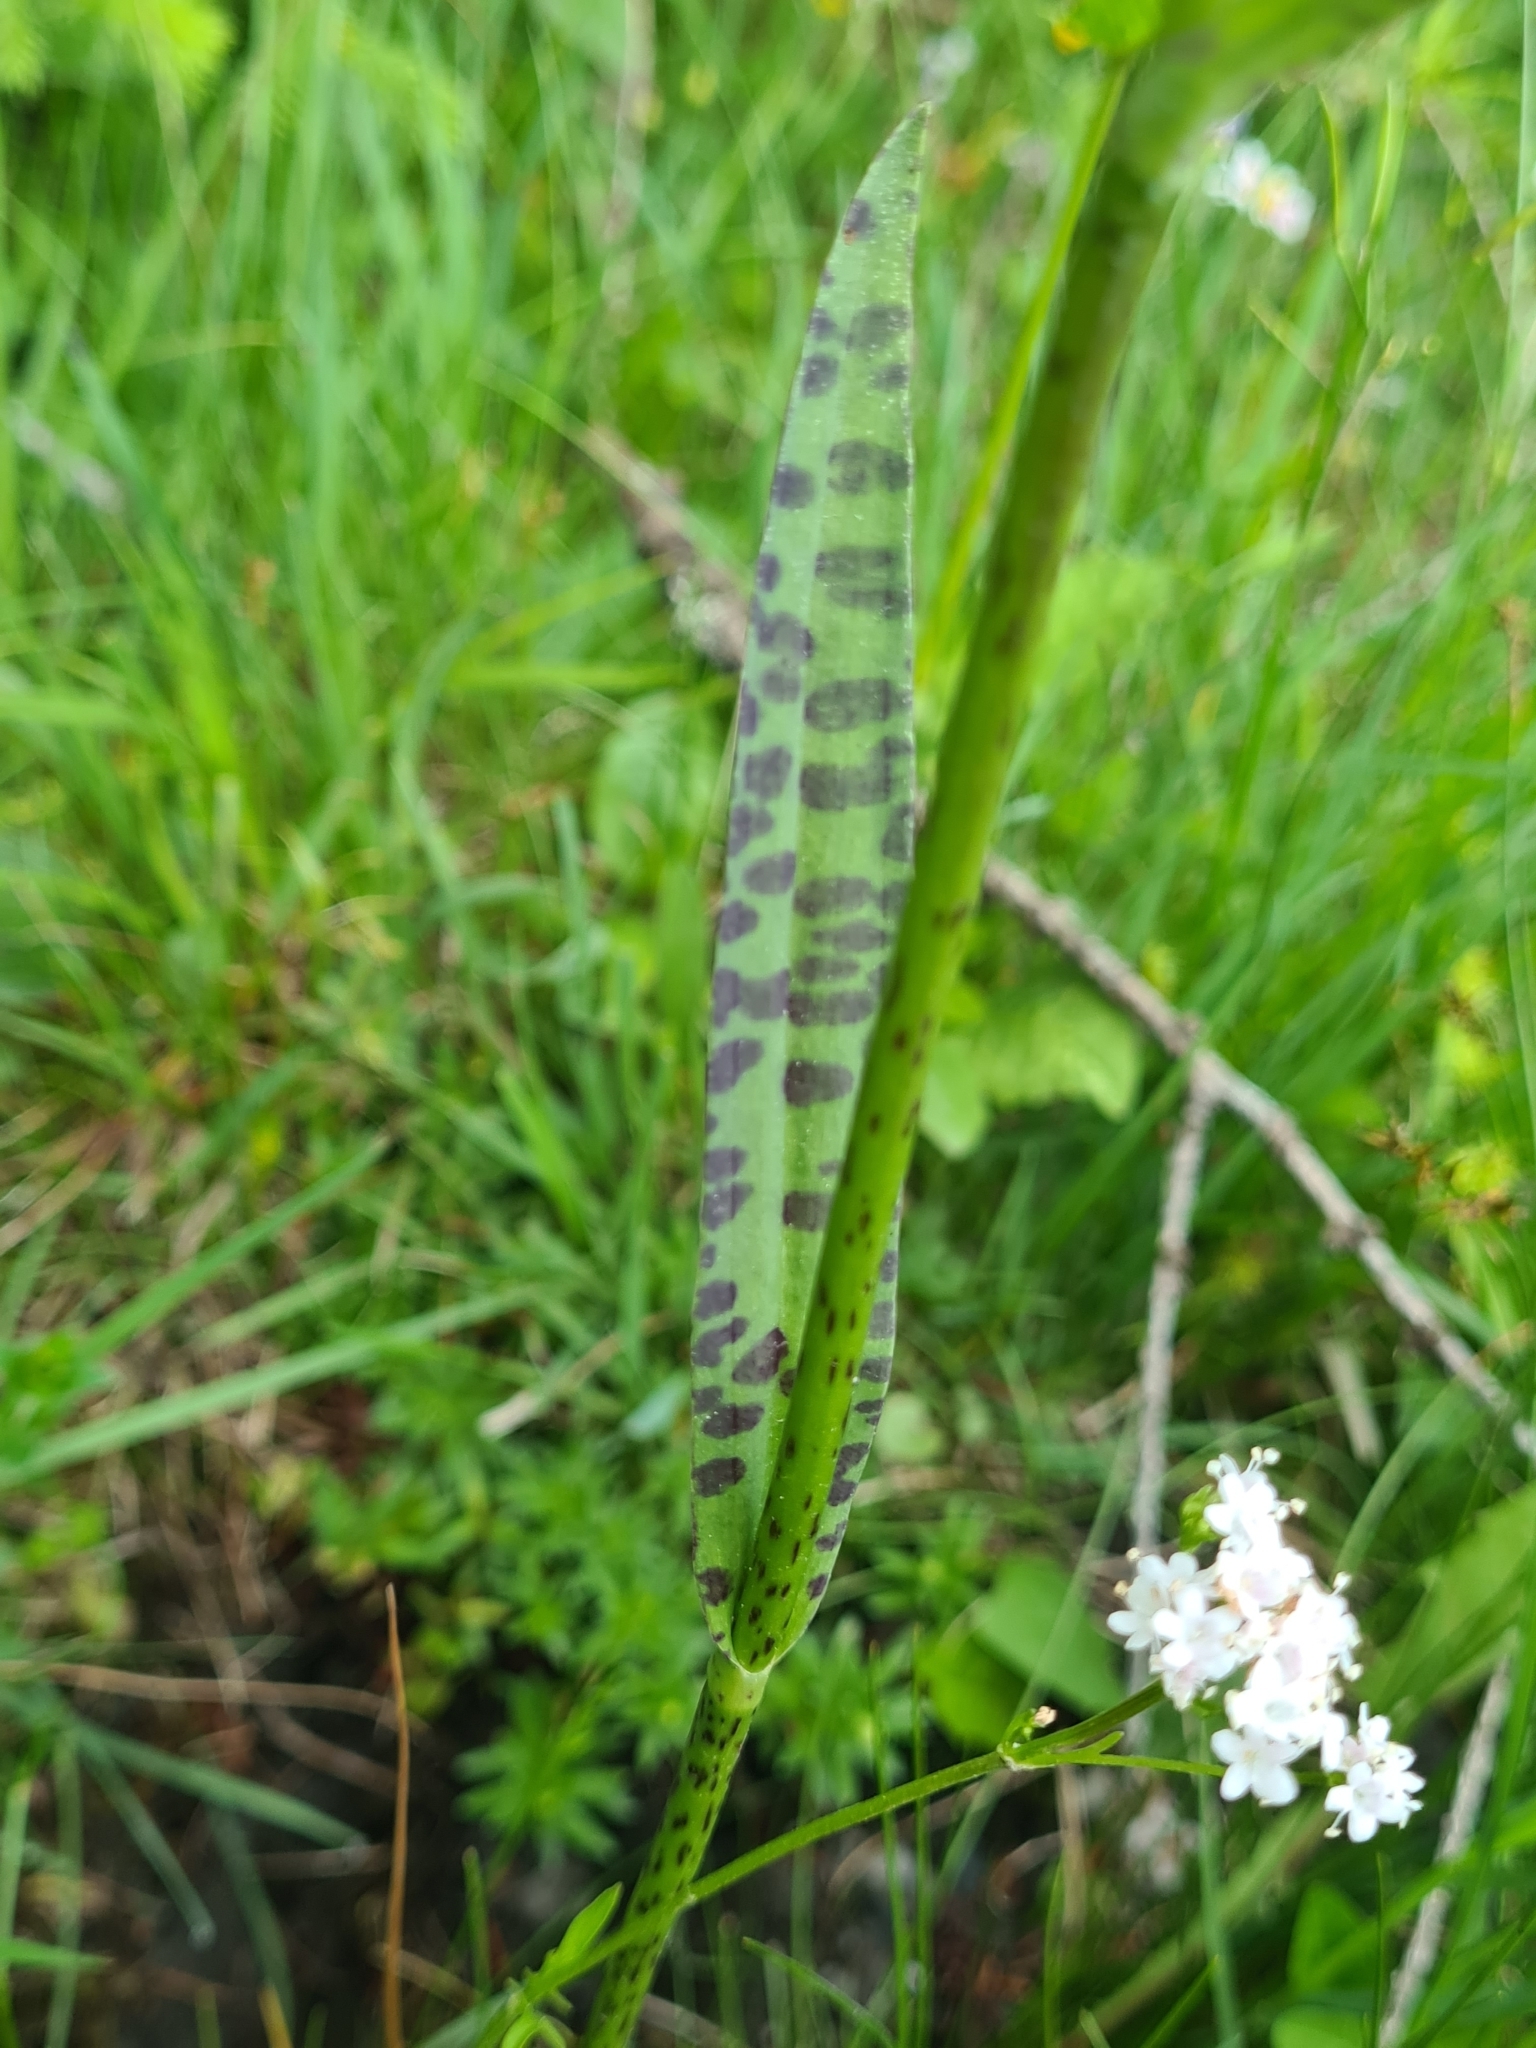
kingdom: Plantae
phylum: Tracheophyta
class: Liliopsida
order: Asparagales
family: Orchidaceae
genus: Dactylorhiza
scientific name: Dactylorhiza maculata
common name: Heath spotted-orchid
